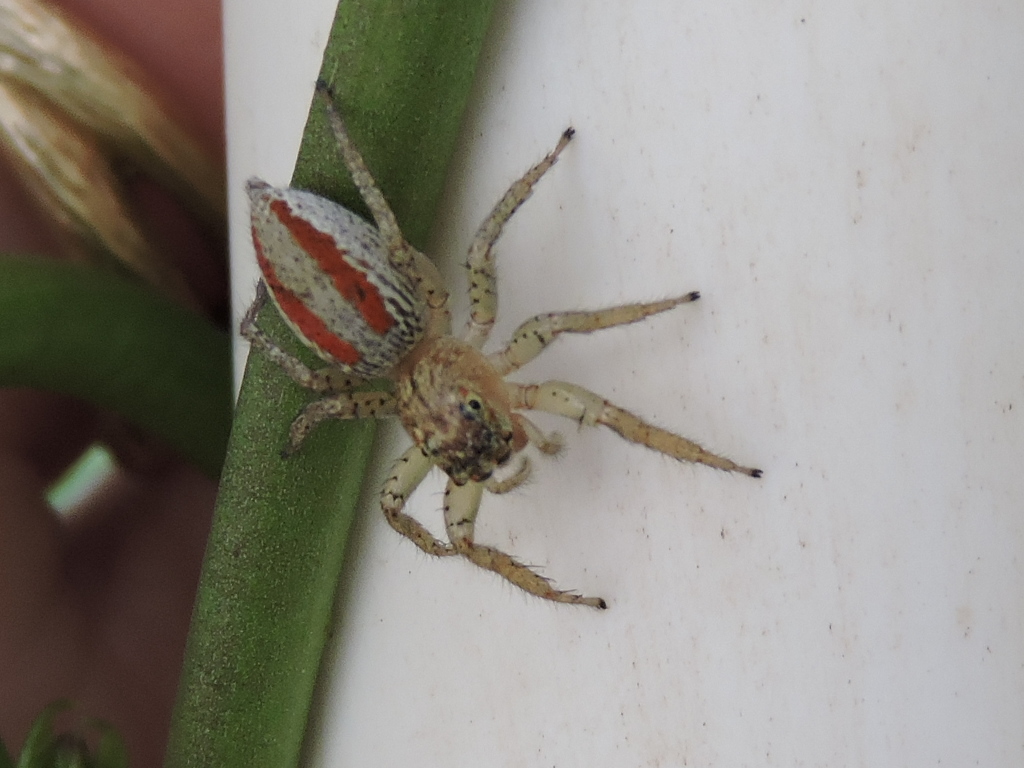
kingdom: Animalia
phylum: Arthropoda
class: Arachnida
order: Araneae
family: Salticidae
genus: Maevia
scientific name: Maevia inclemens
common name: Dimorphic jumper
